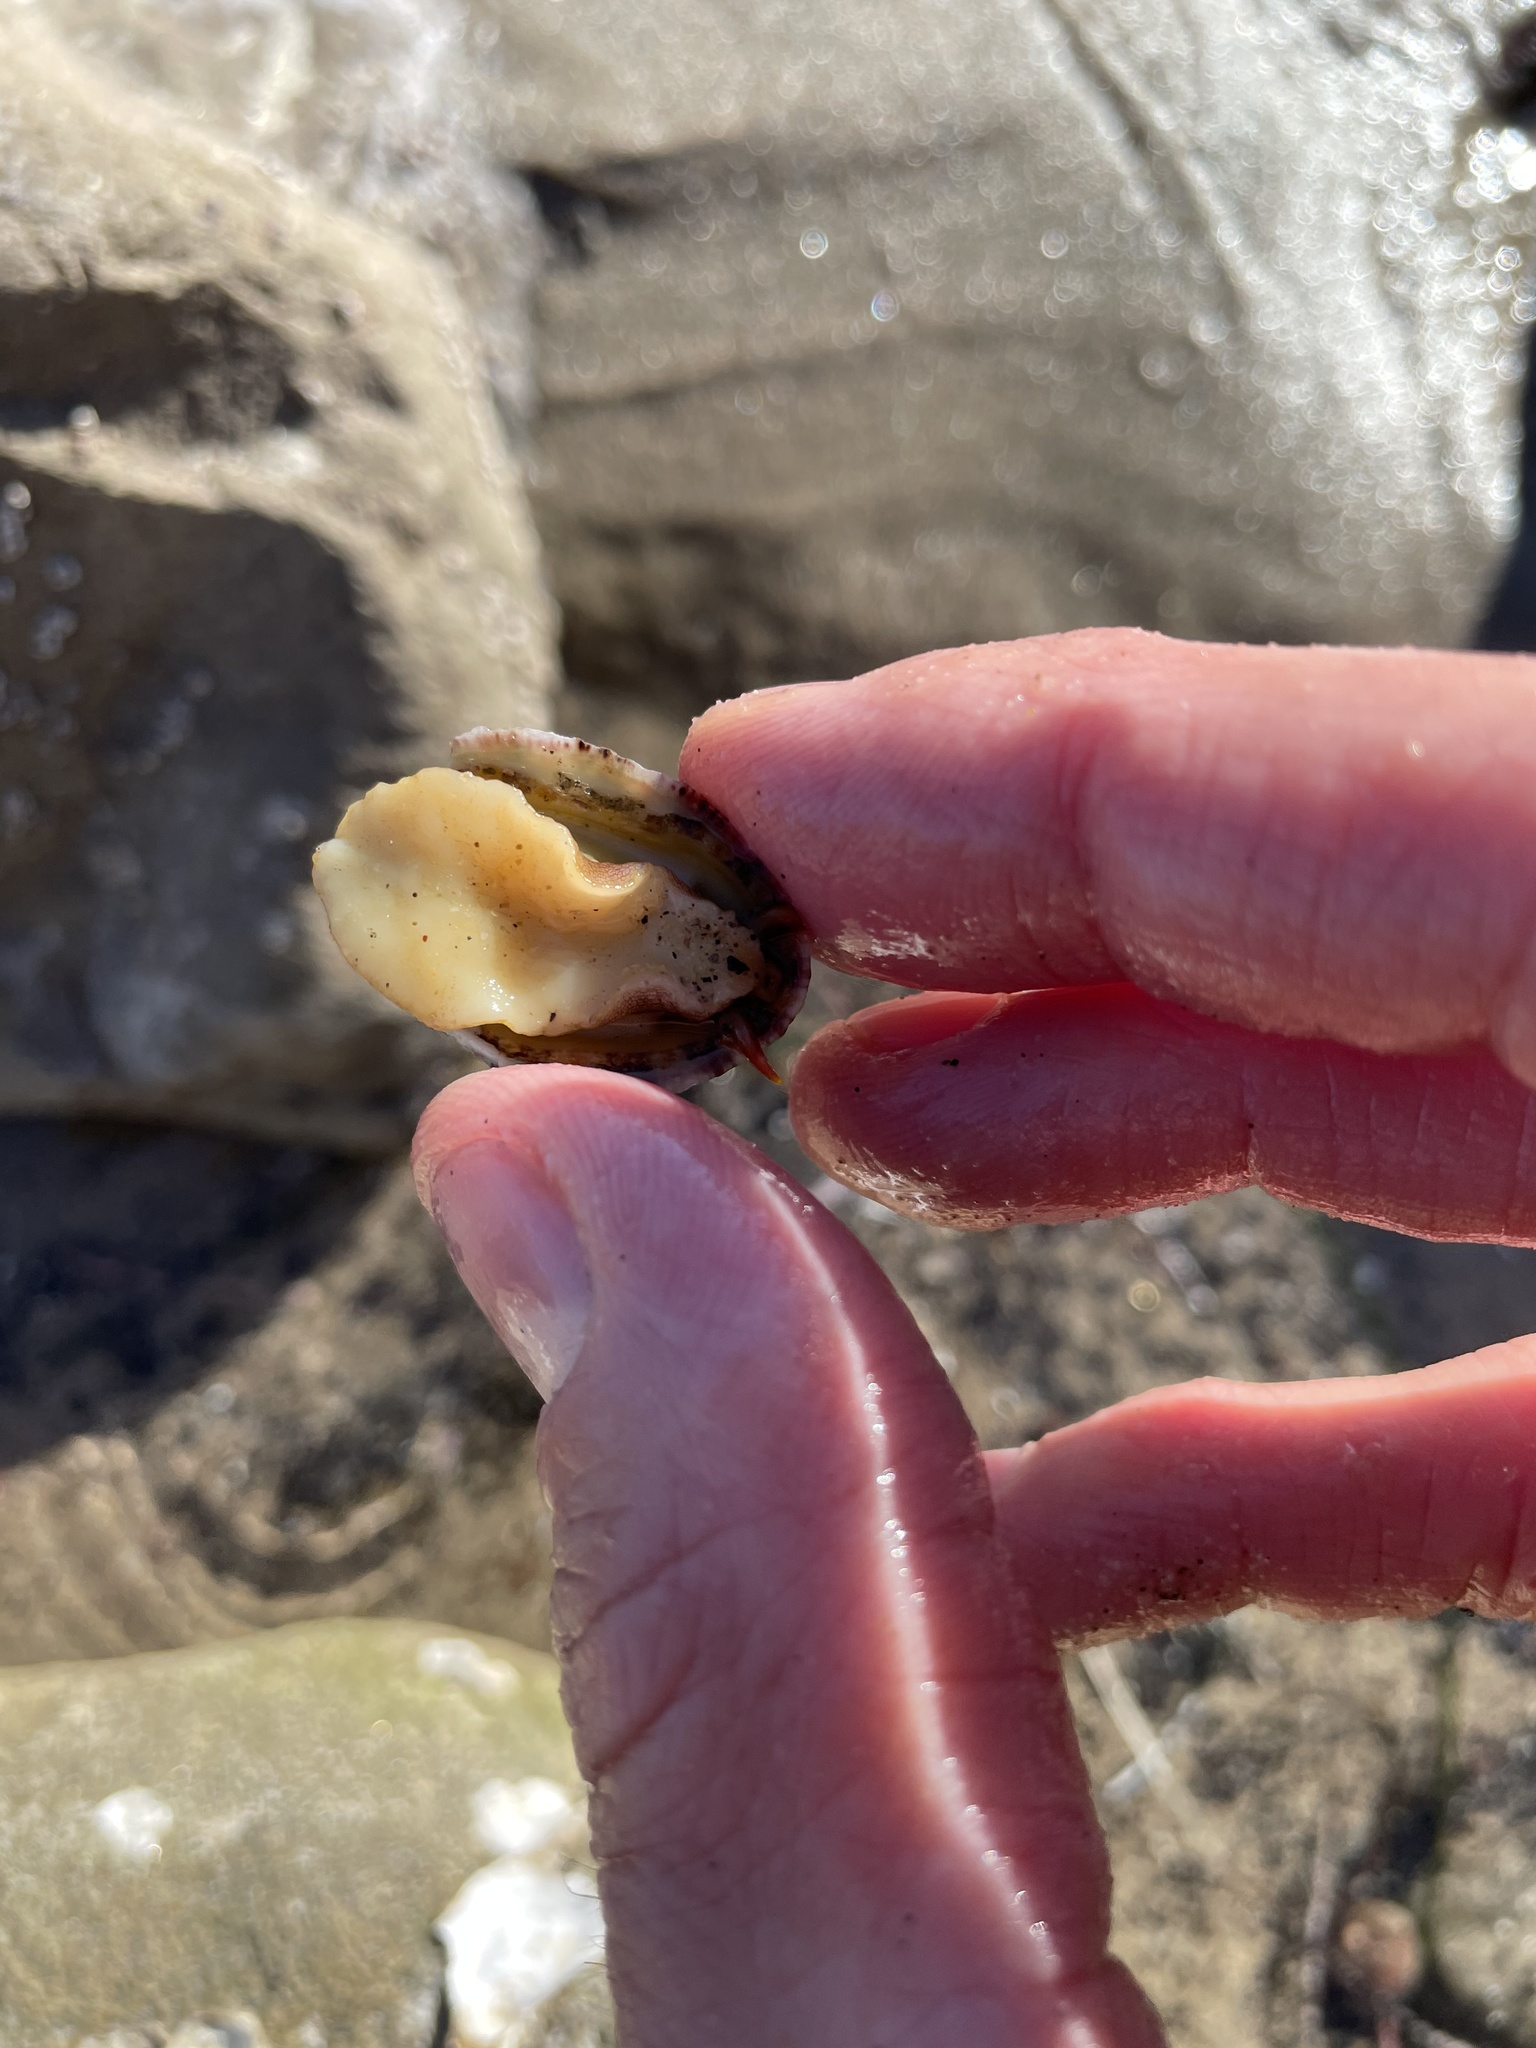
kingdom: Animalia
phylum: Mollusca
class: Gastropoda
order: Lepetellida
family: Fissurellidae
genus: Fissurella
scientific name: Fissurella volcano
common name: Volcano keyhole limpet
